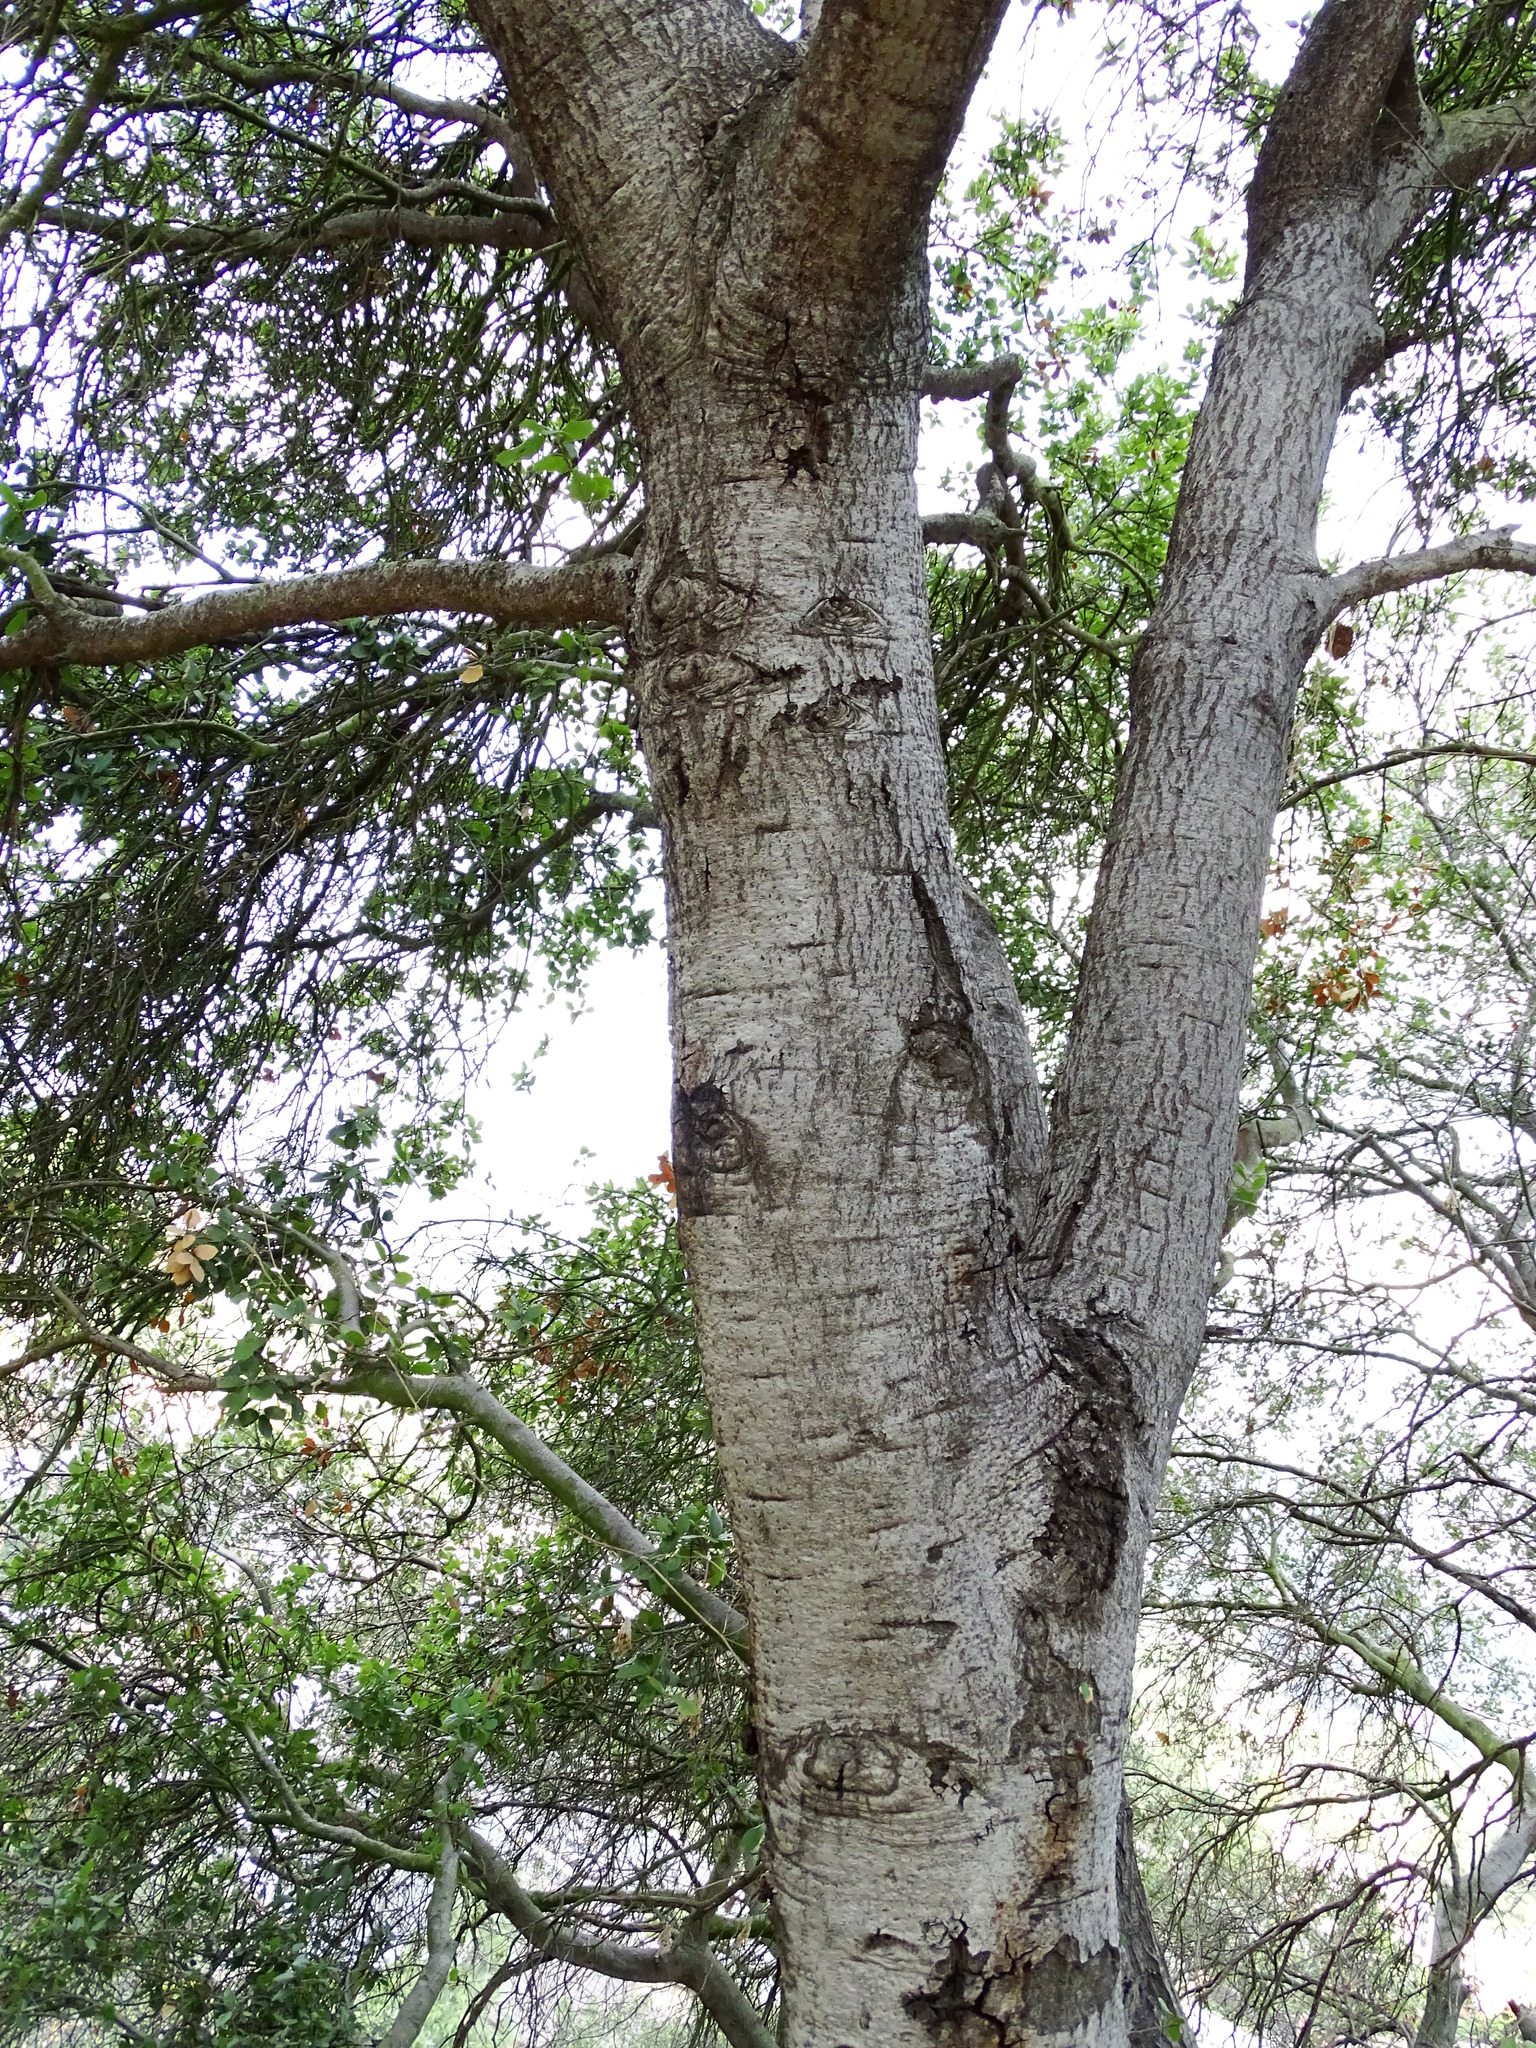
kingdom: Plantae
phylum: Tracheophyta
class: Magnoliopsida
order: Fagales
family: Fagaceae
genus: Quercus
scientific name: Quercus agrifolia
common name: California live oak
